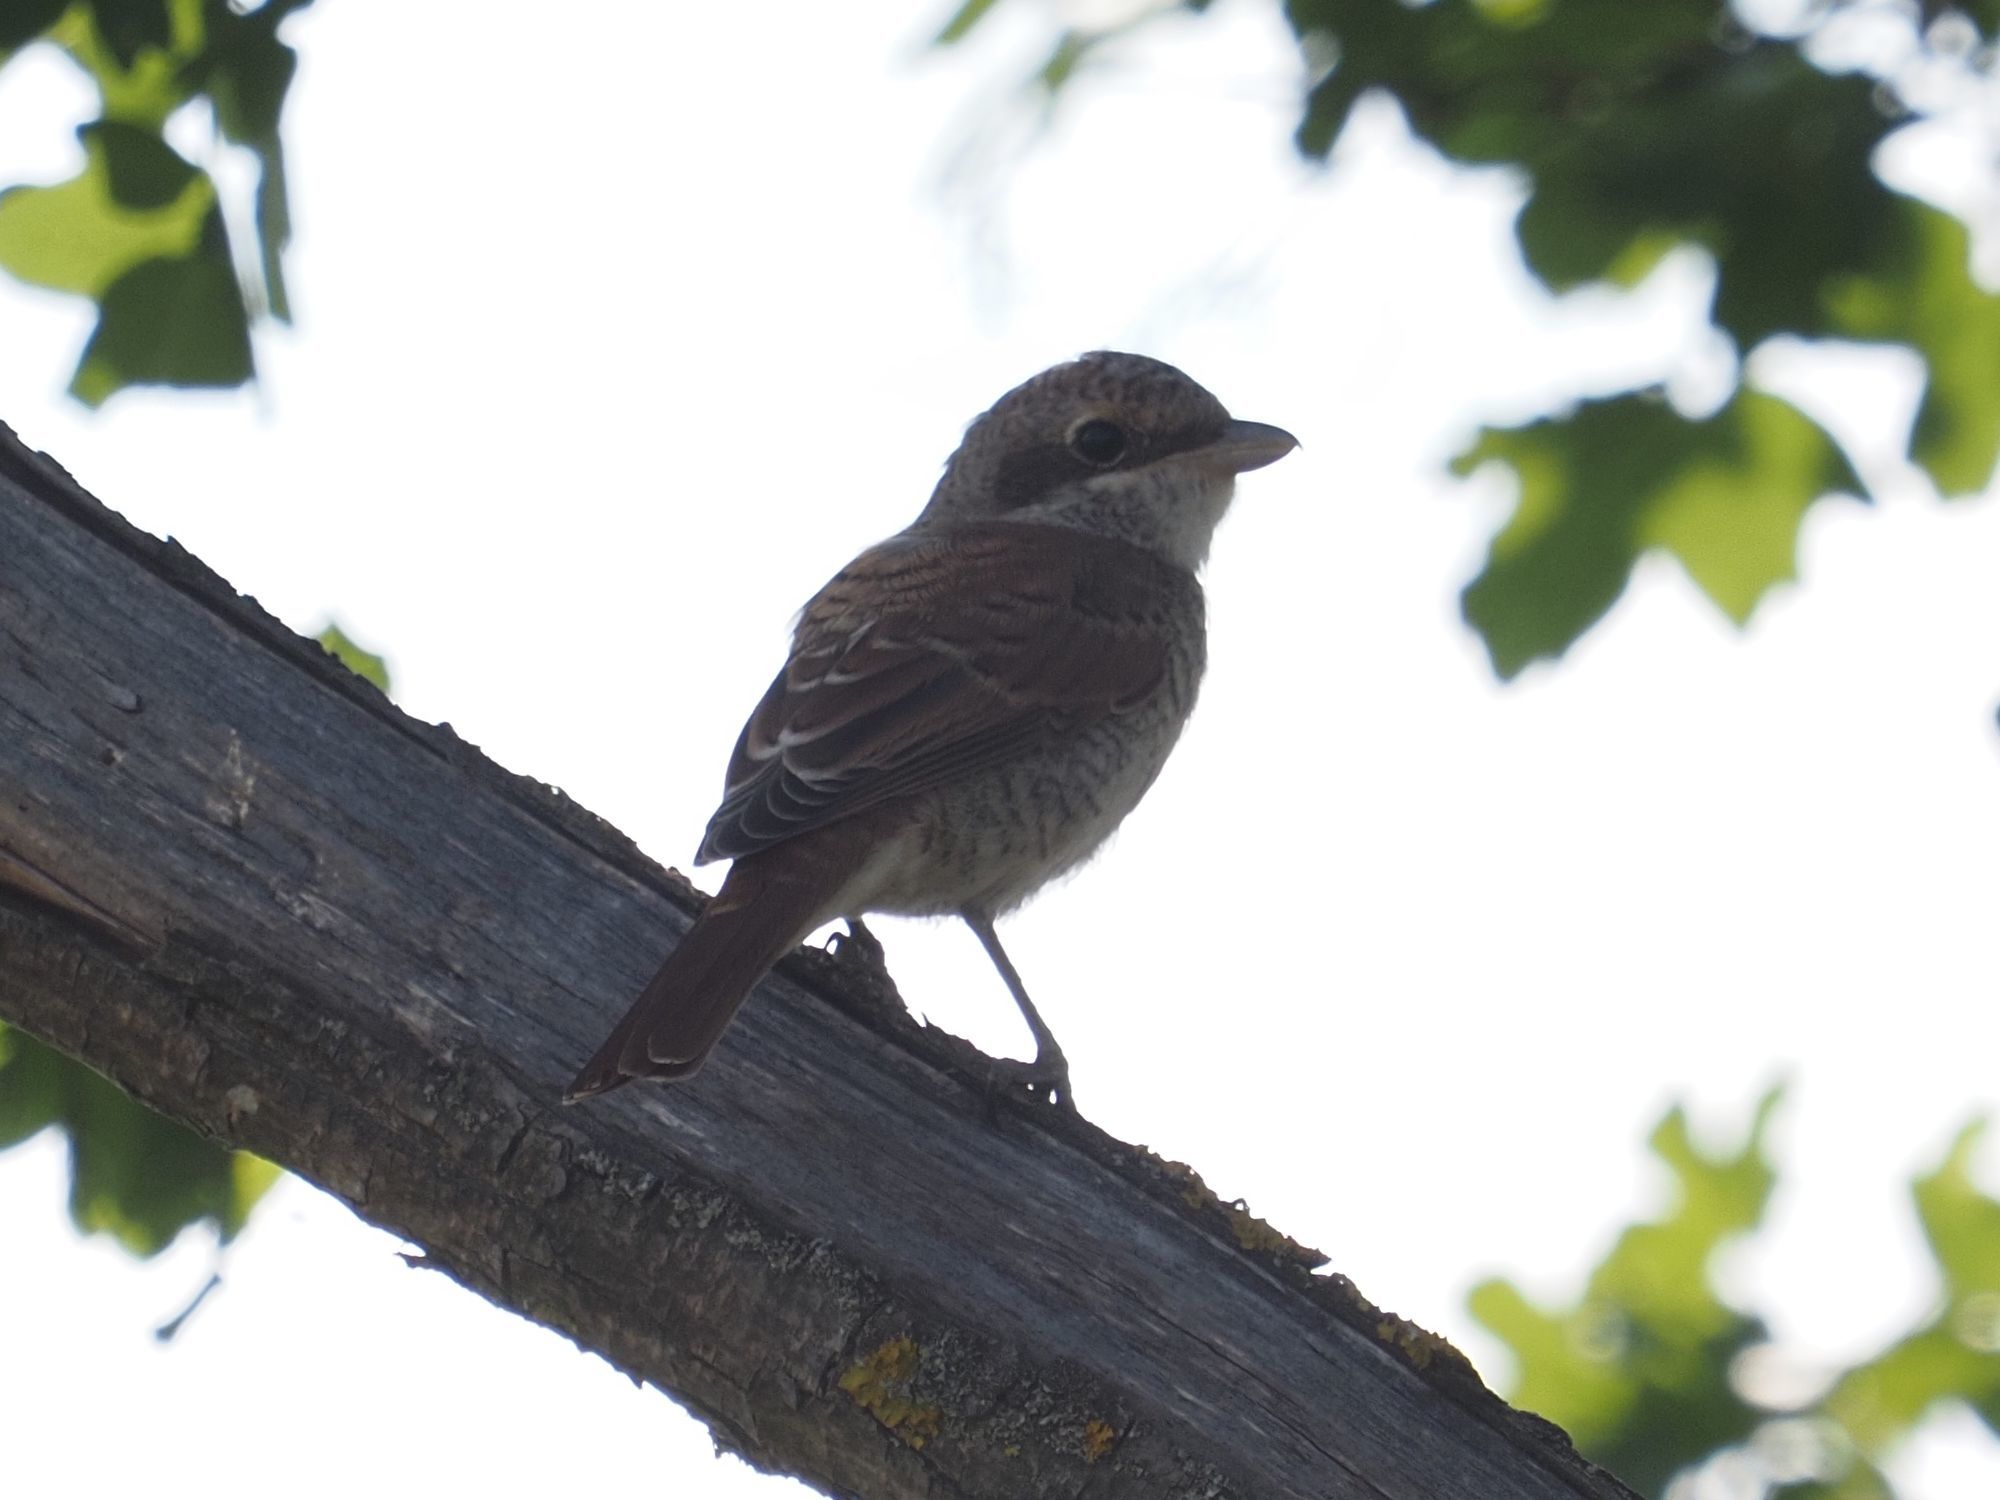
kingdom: Animalia
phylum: Chordata
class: Aves
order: Passeriformes
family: Laniidae
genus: Lanius
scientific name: Lanius collurio
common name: Red-backed shrike
